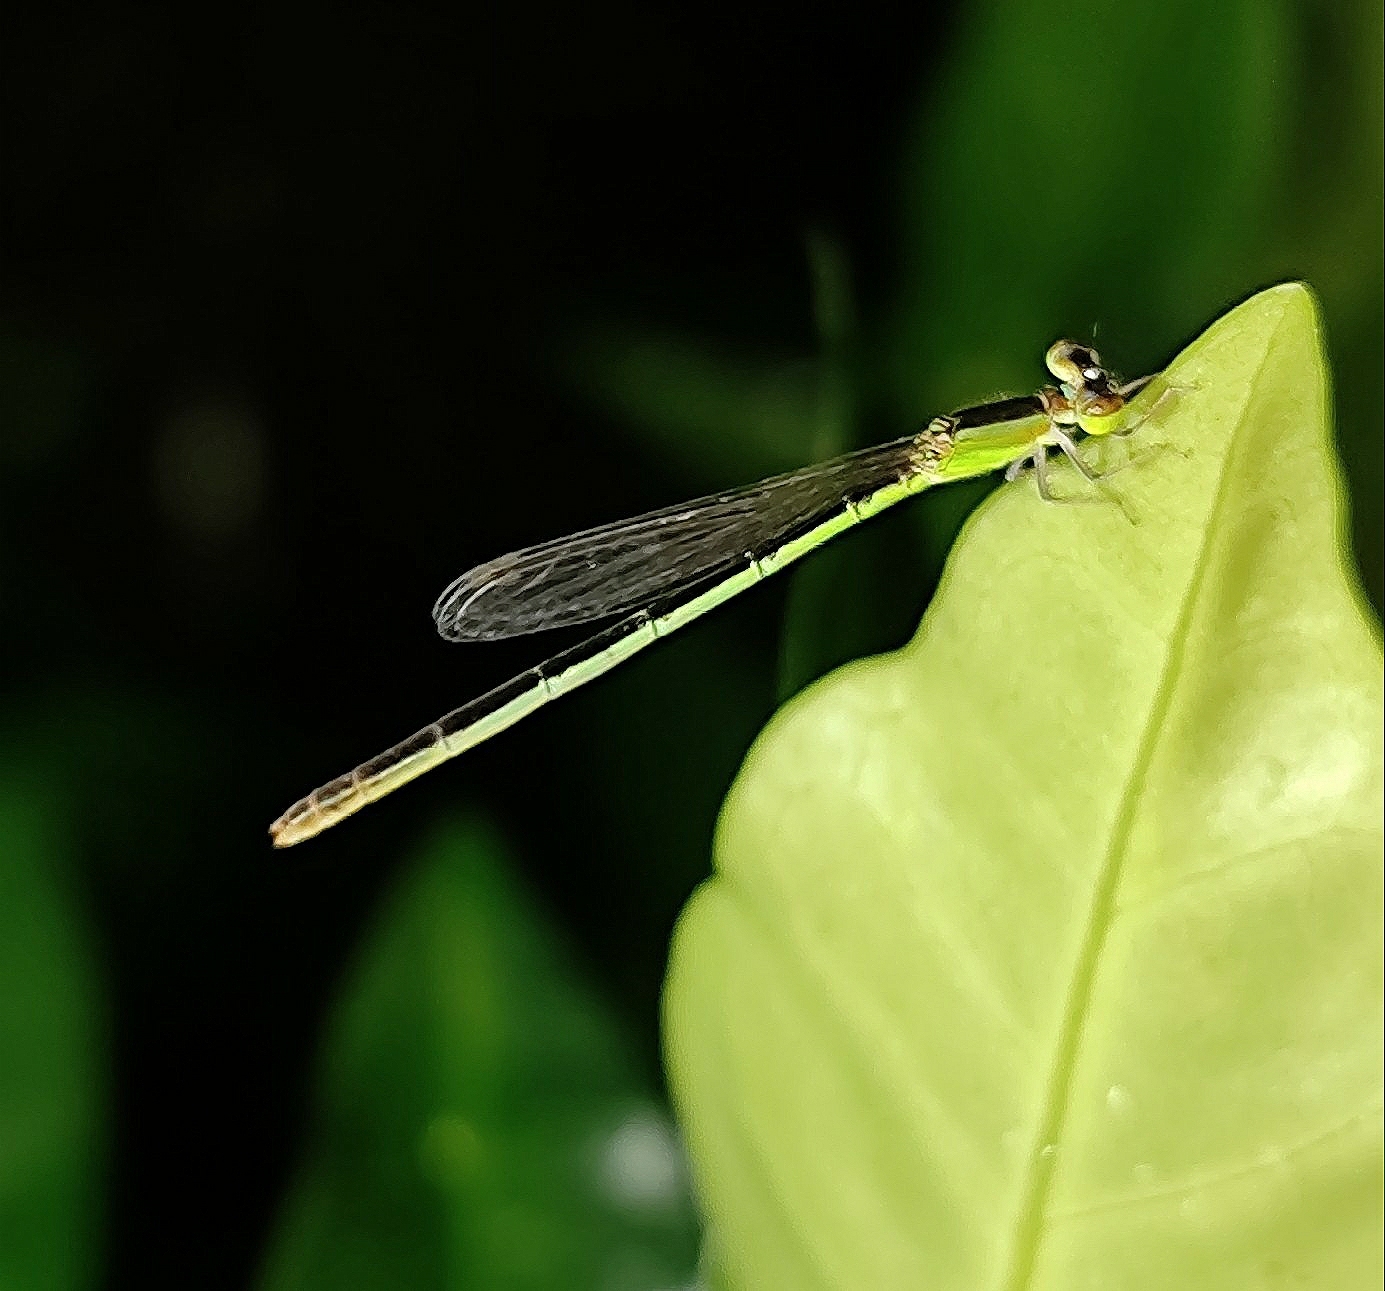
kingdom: Animalia
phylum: Arthropoda
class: Insecta
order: Odonata
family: Coenagrionidae
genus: Agriocnemis
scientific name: Agriocnemis pygmaea
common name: Pygmy wisp
